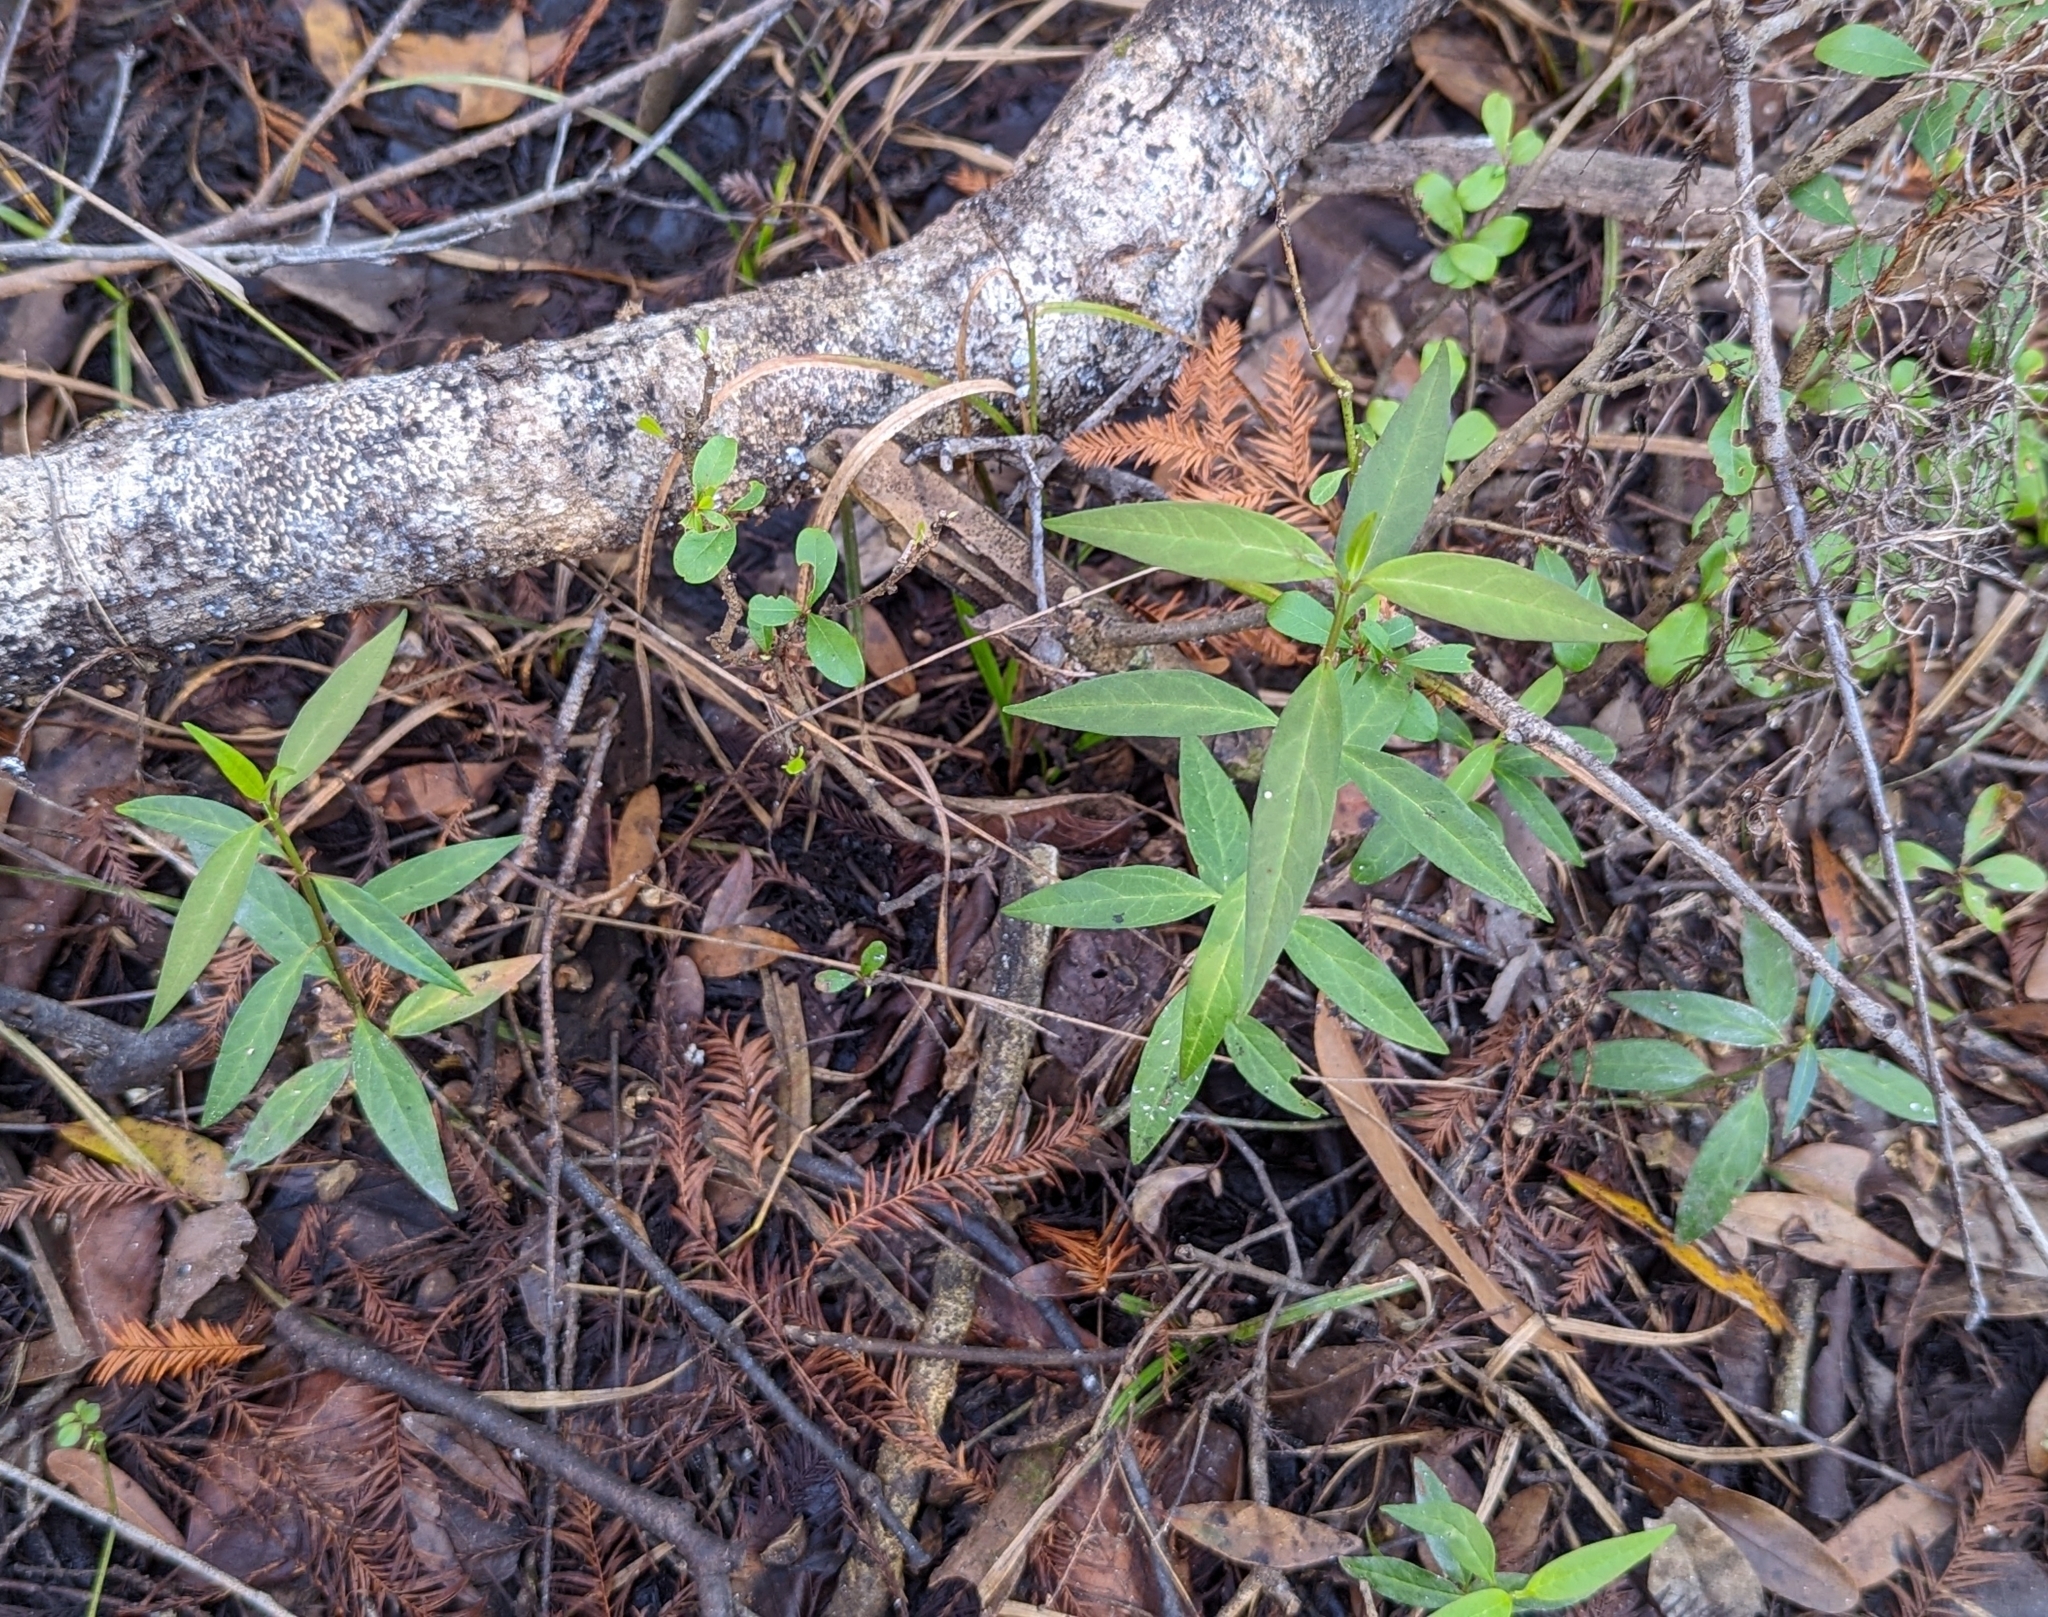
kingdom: Plantae
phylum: Tracheophyta
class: Magnoliopsida
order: Gentianales
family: Apocynaceae
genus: Asclepias
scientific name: Asclepias perennis
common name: Smooth-seed milkweed
